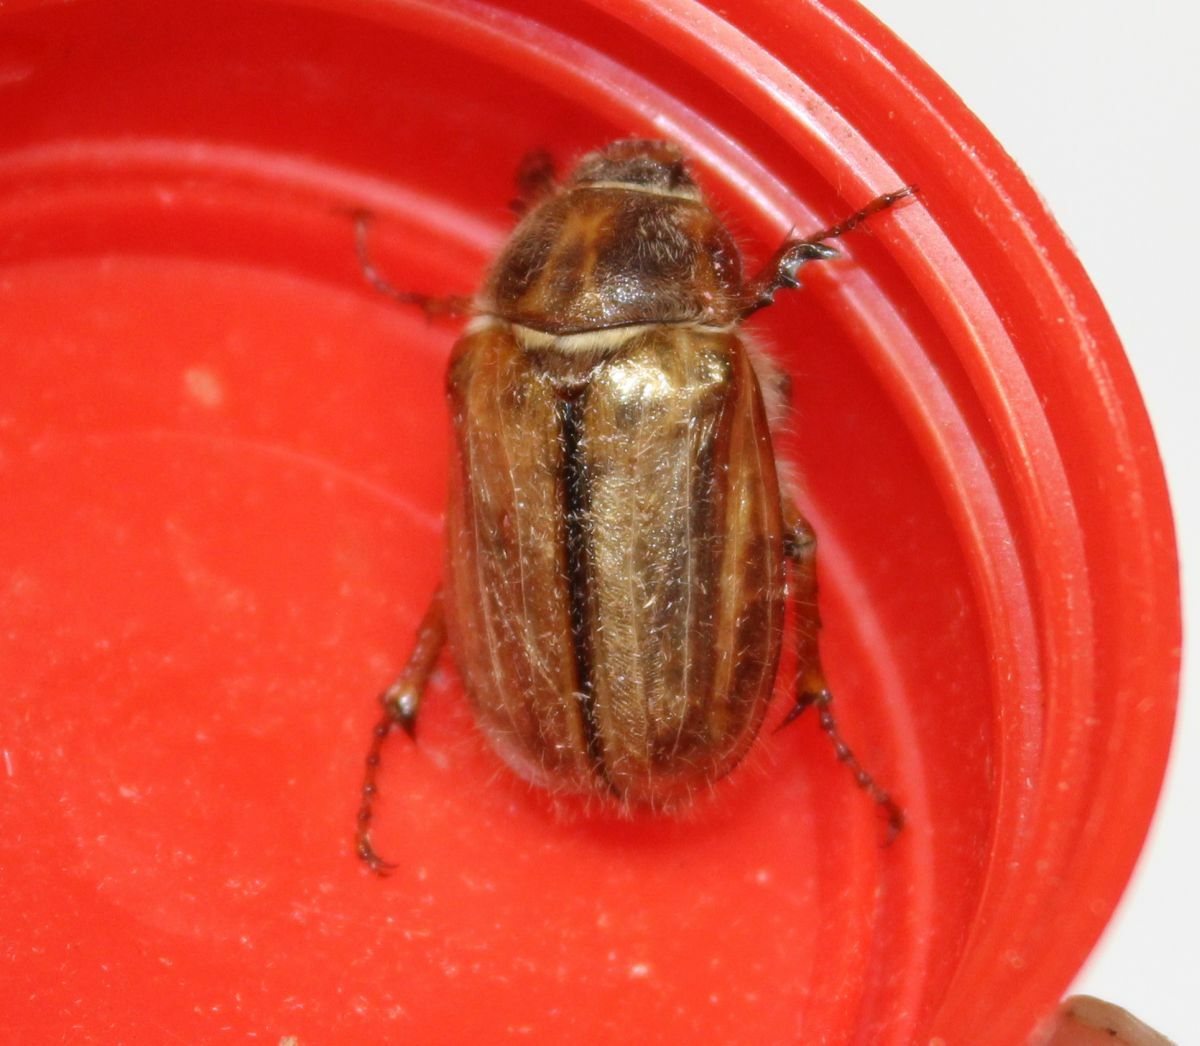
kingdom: Animalia
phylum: Arthropoda
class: Insecta
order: Coleoptera
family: Scarabaeidae
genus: Amphimallon
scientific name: Amphimallon solstitiale
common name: Summer chafer
